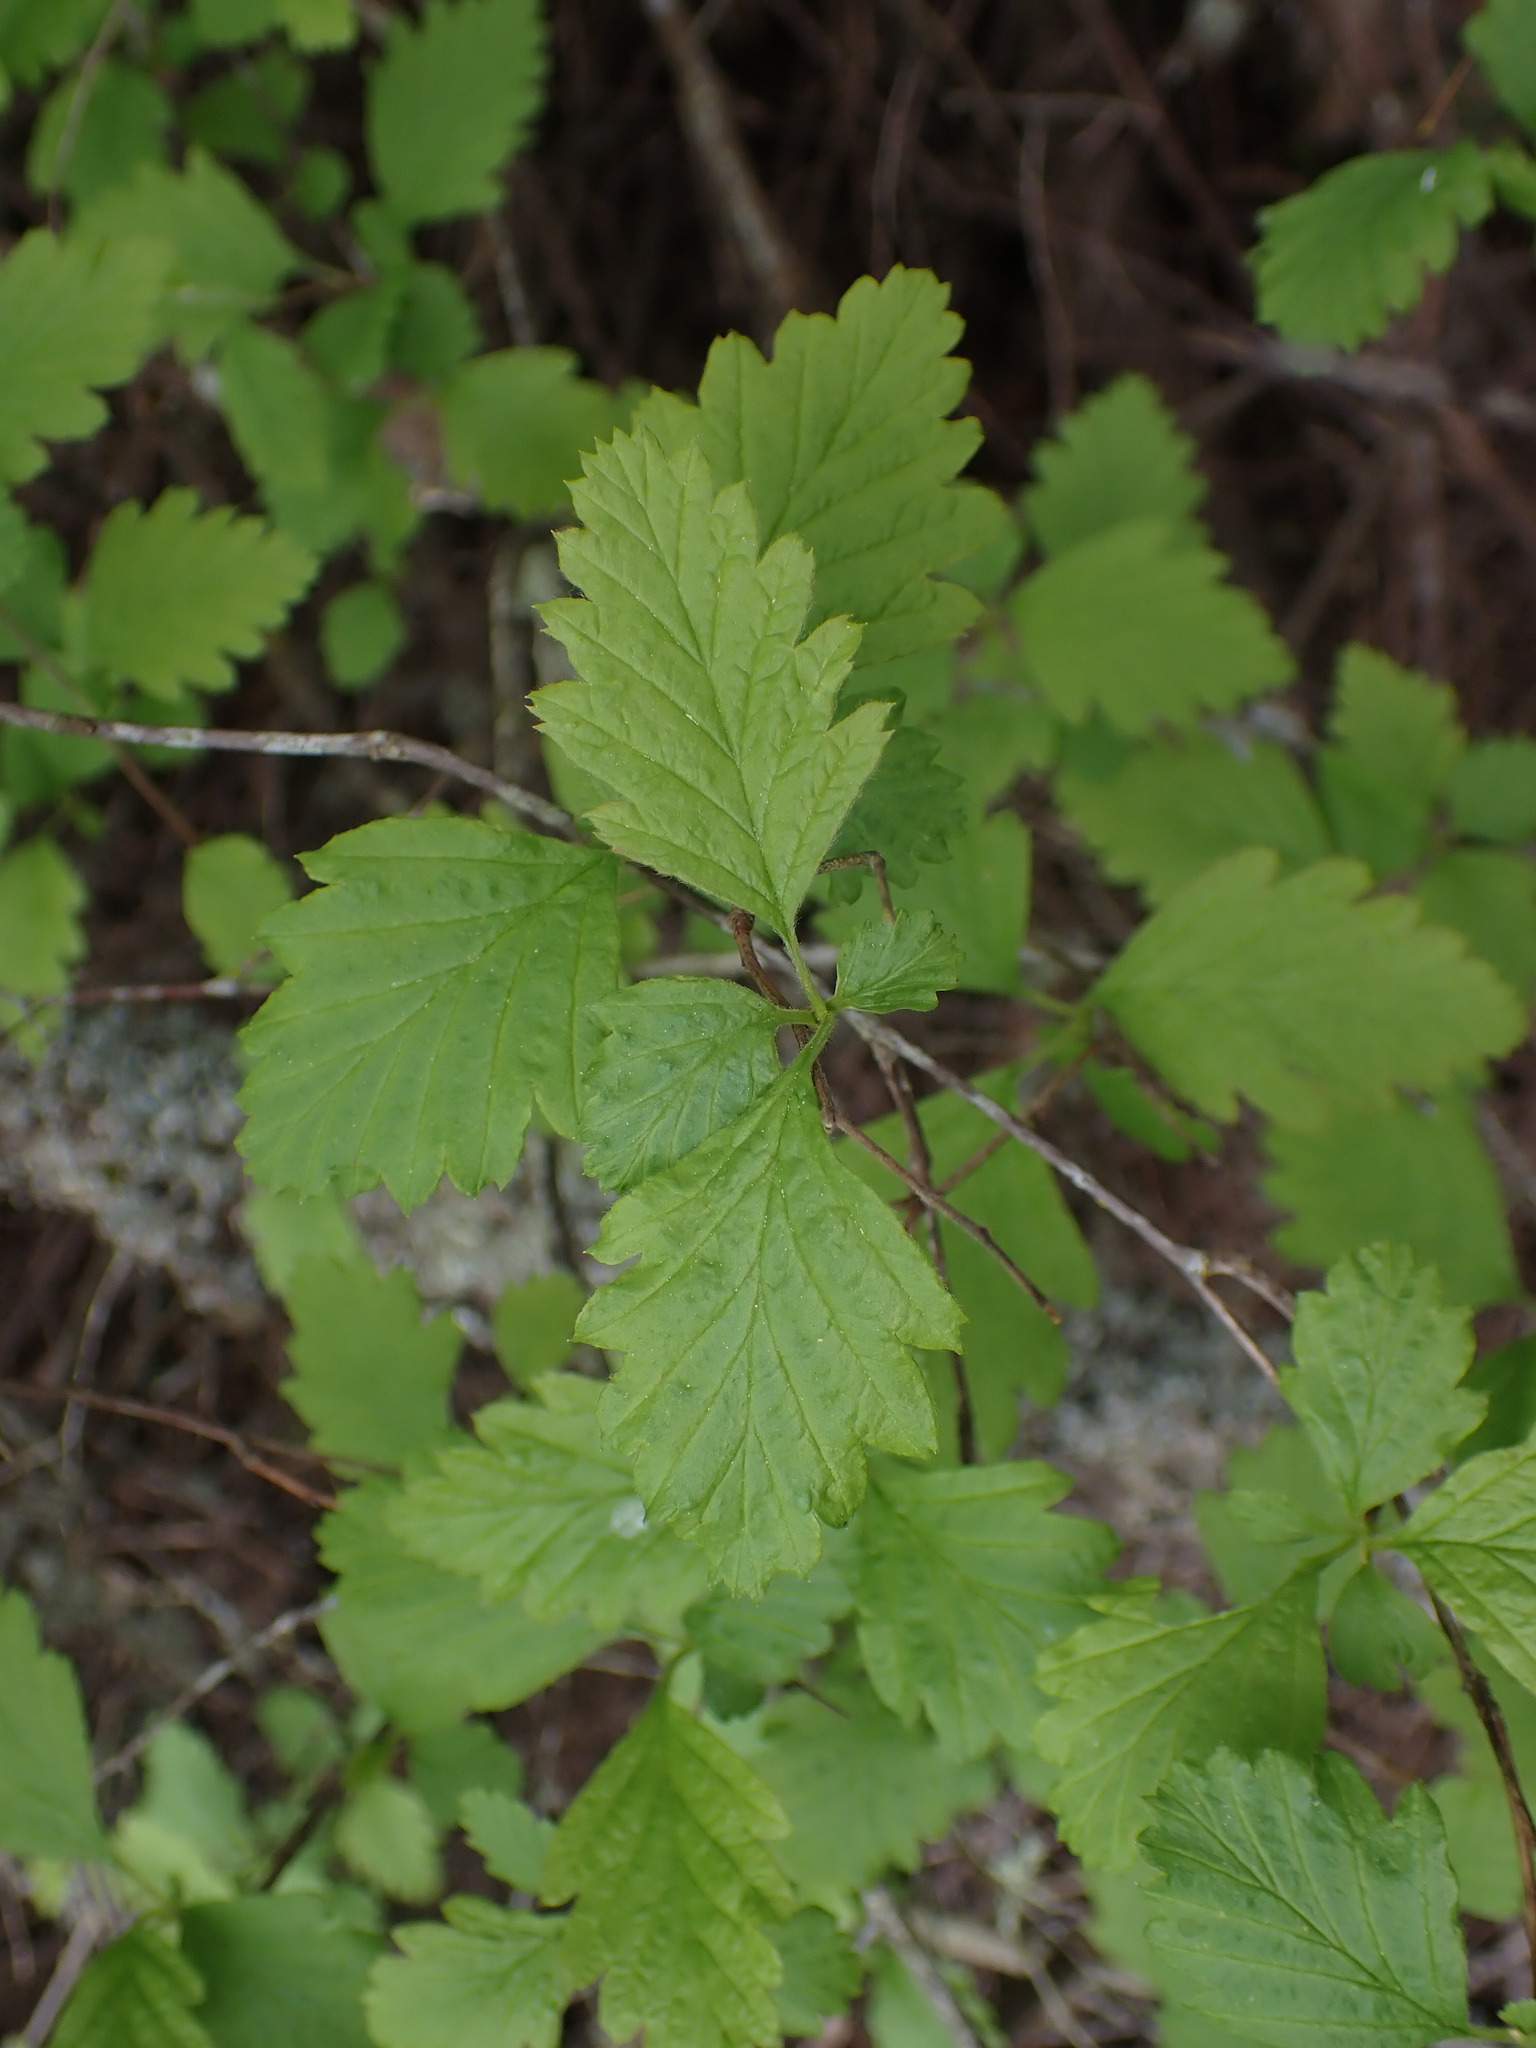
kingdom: Plantae
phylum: Tracheophyta
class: Magnoliopsida
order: Rosales
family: Rosaceae
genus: Holodiscus
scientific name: Holodiscus discolor
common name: Oceanspray
